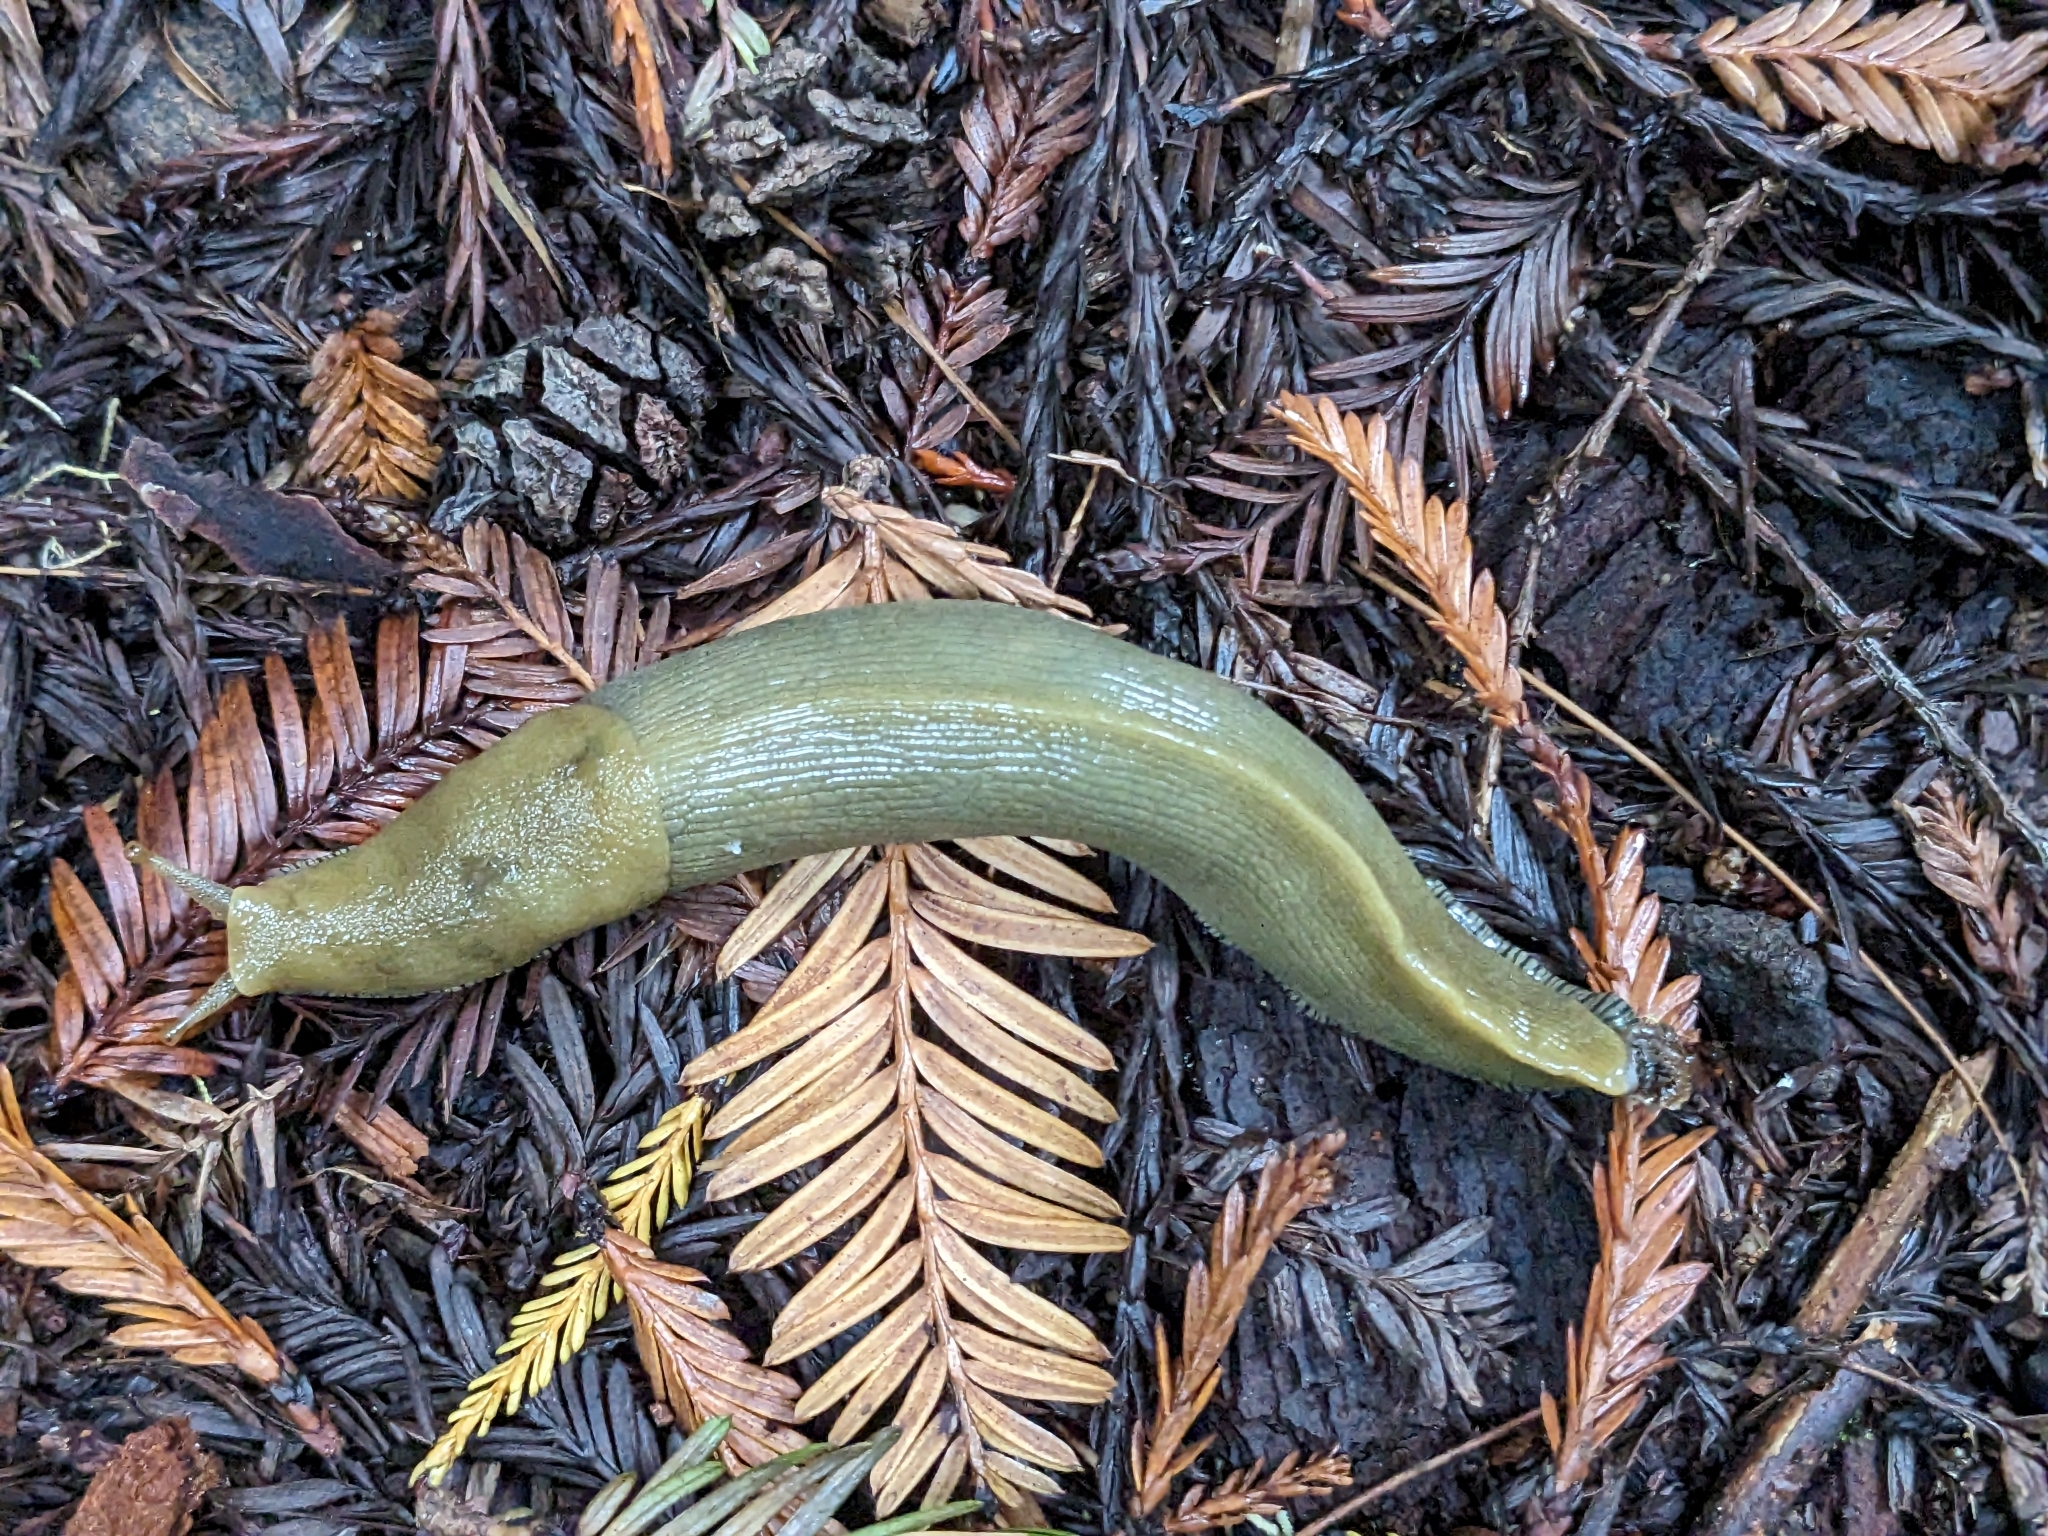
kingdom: Animalia
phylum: Mollusca
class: Gastropoda
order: Stylommatophora
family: Ariolimacidae
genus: Ariolimax
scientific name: Ariolimax buttoni
